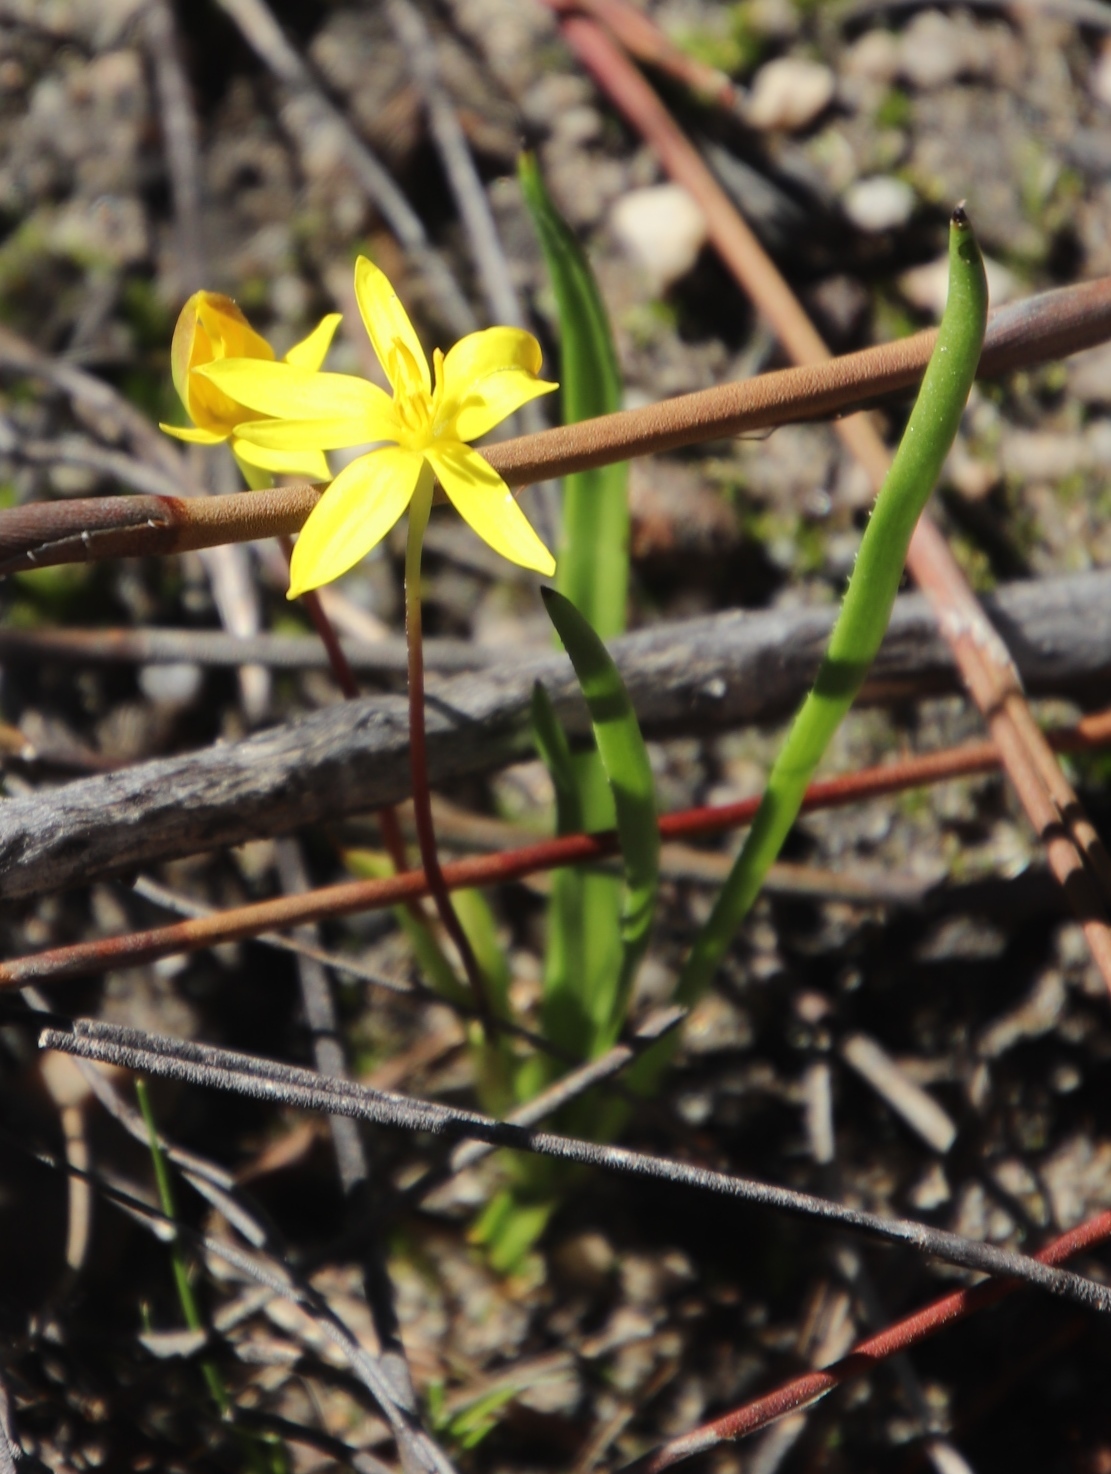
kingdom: Plantae
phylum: Tracheophyta
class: Liliopsida
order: Asparagales
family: Hypoxidaceae
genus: Pauridia
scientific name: Pauridia monticola
